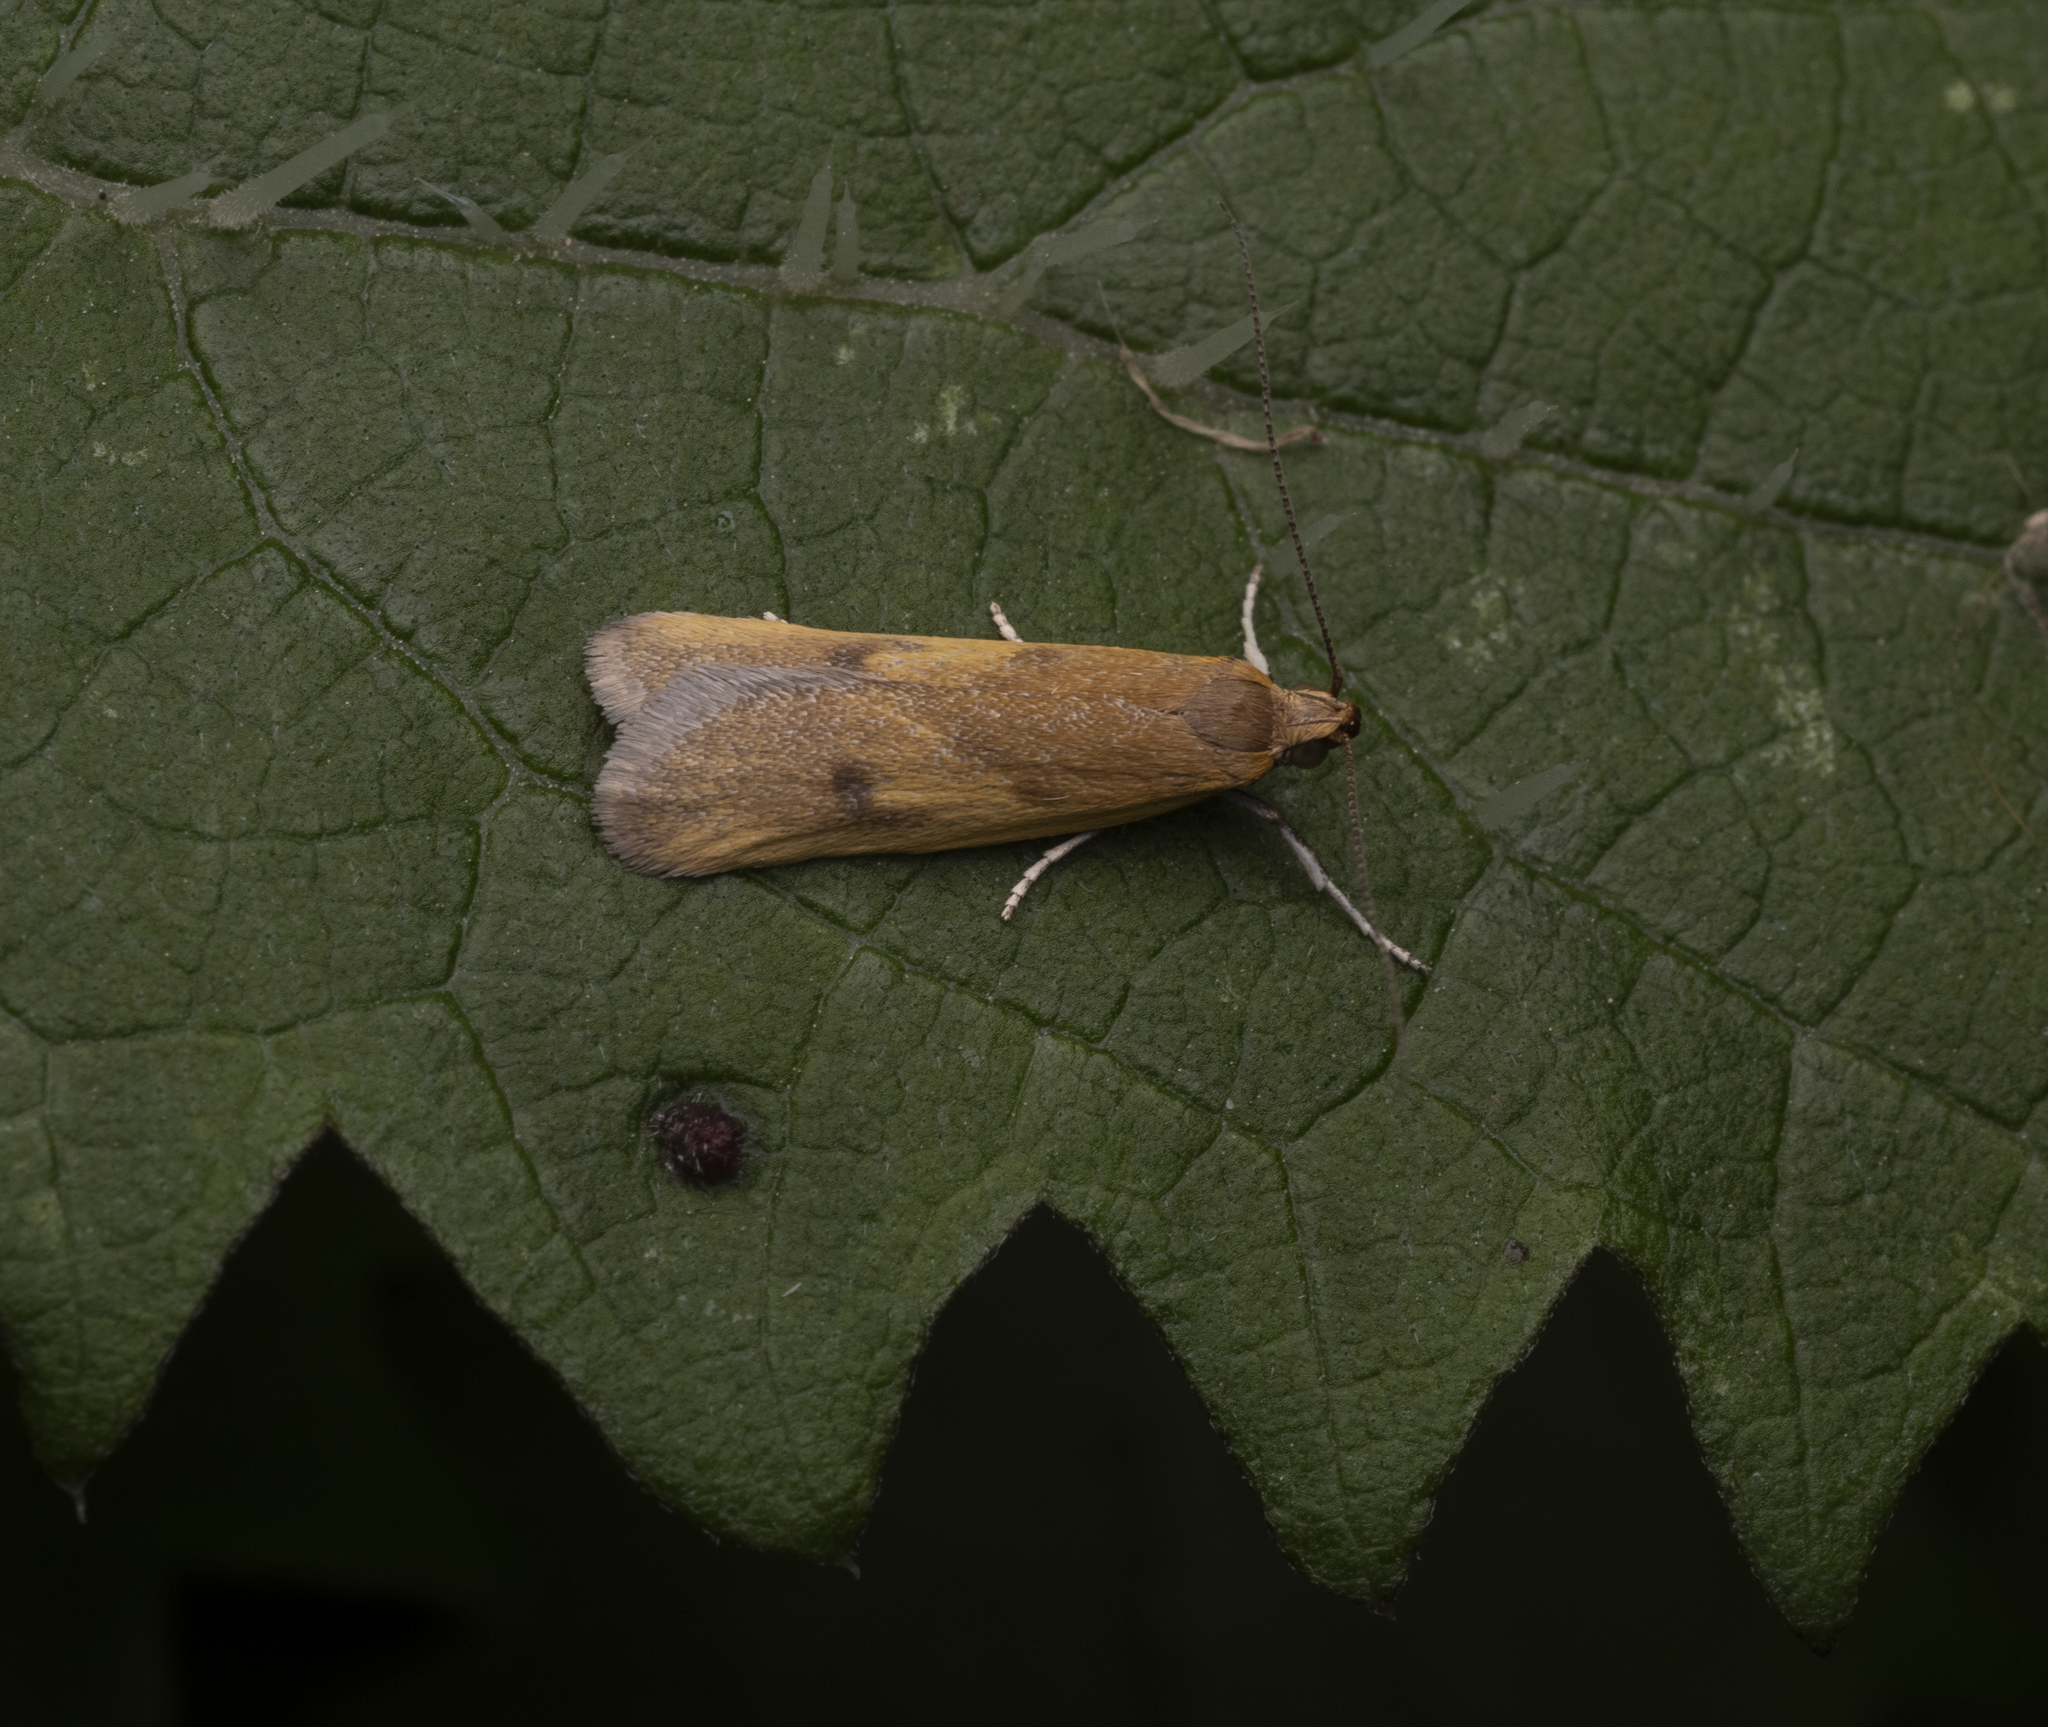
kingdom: Animalia
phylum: Arthropoda
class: Insecta
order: Lepidoptera
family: Oecophoridae
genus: Gymnobathra
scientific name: Gymnobathra parca
